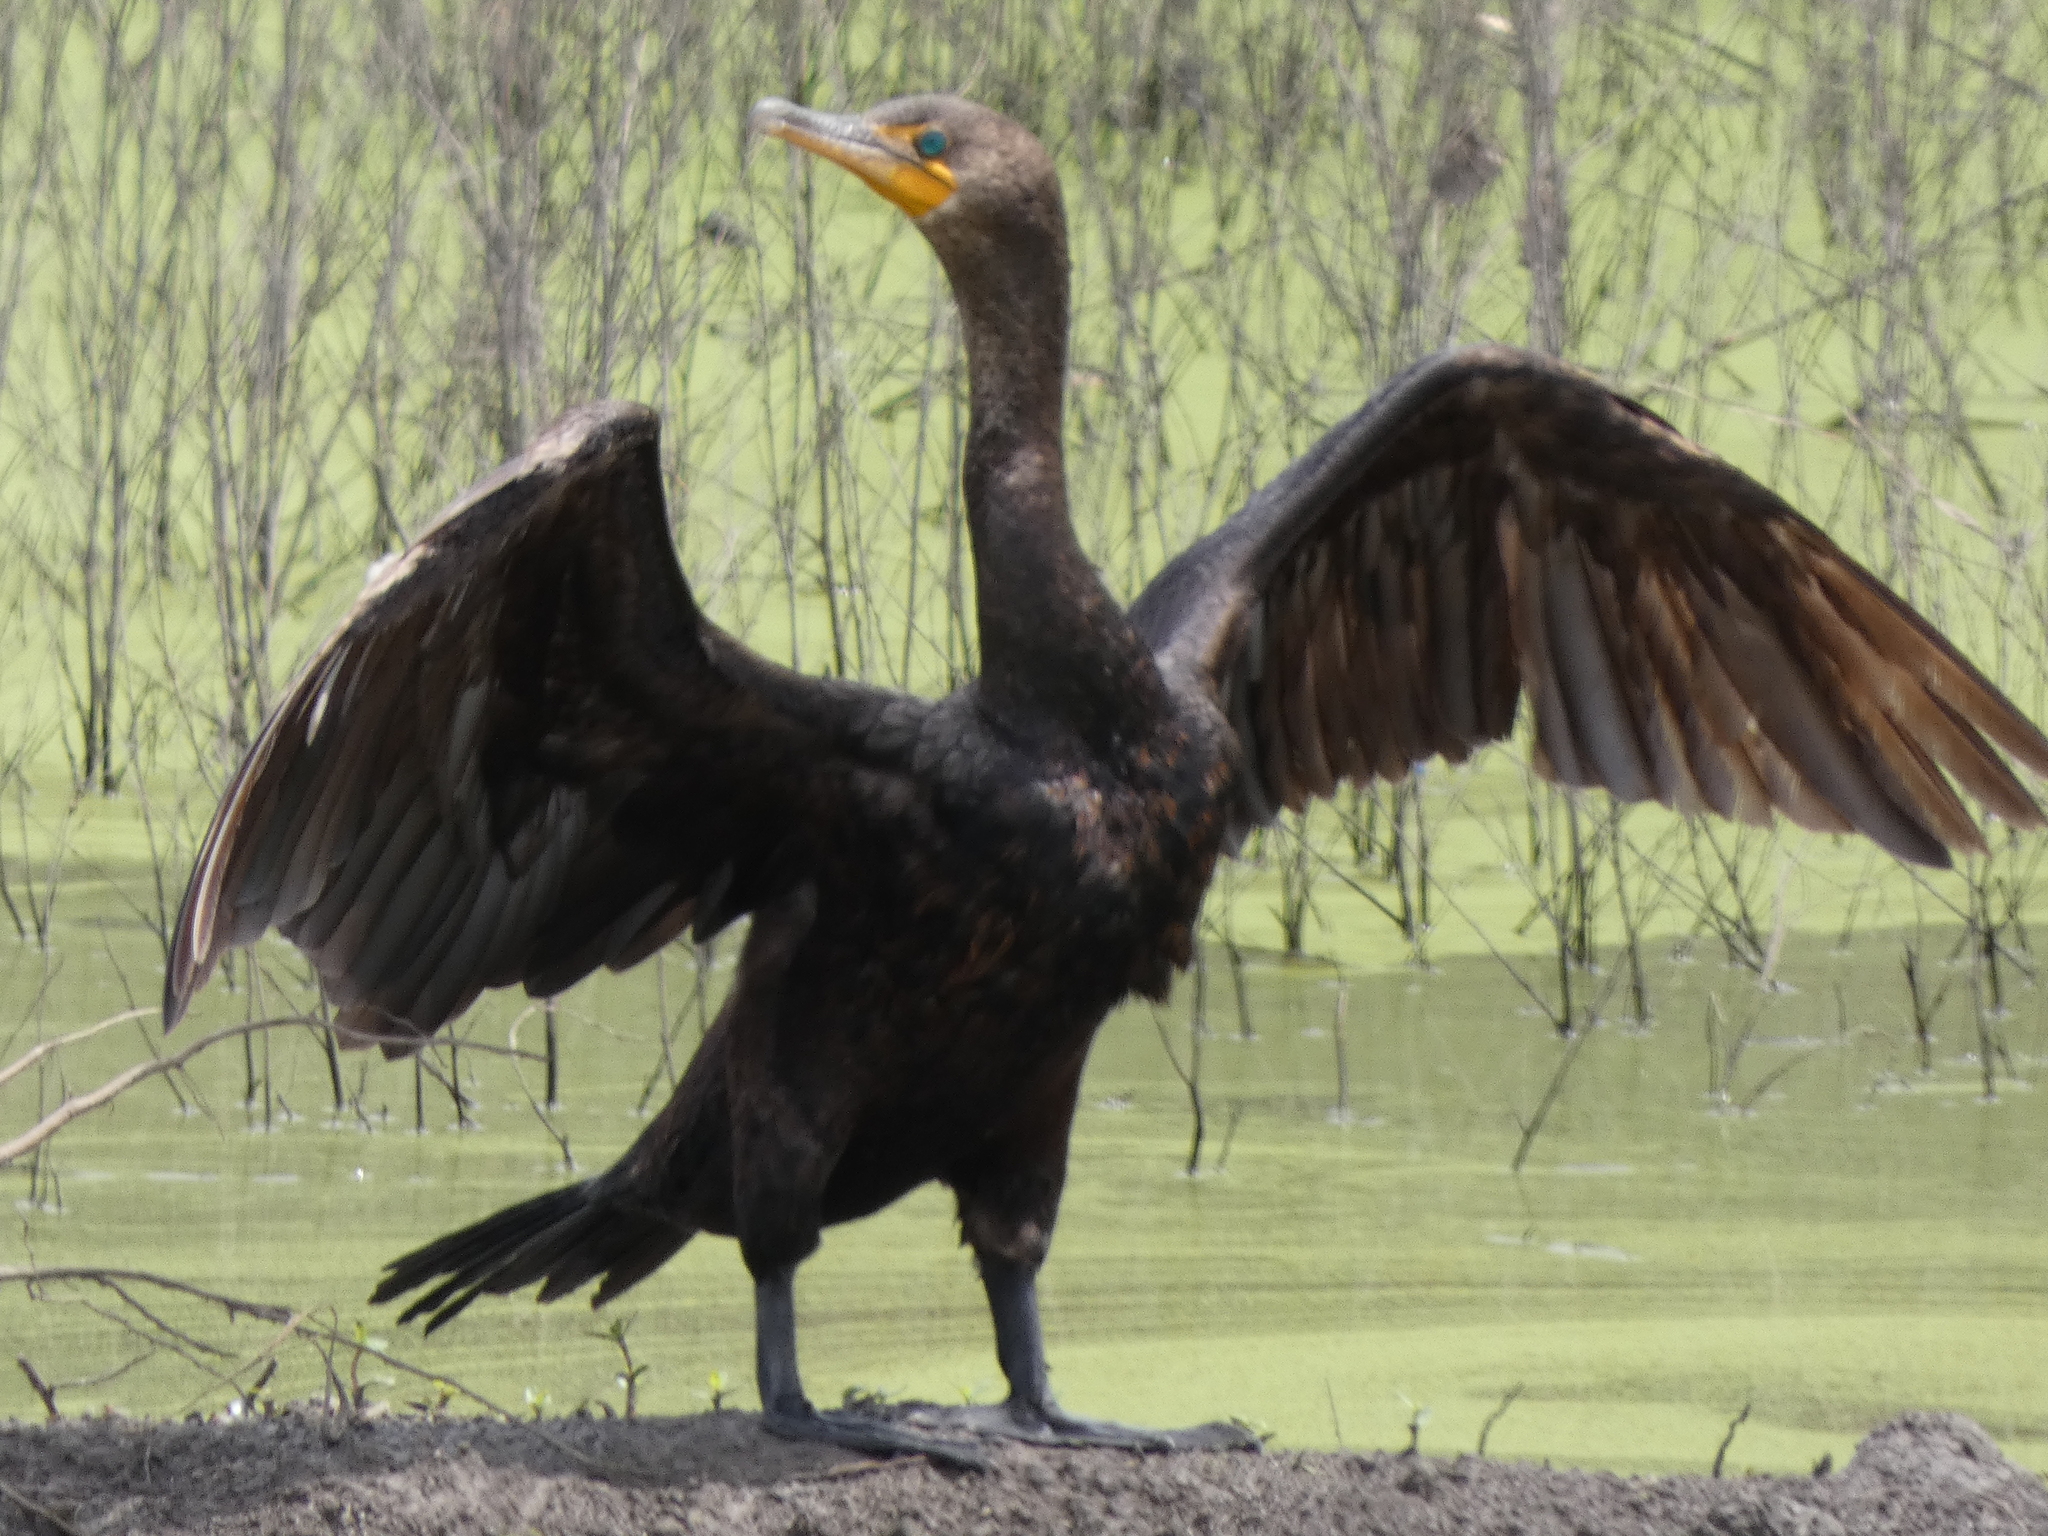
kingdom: Animalia
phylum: Chordata
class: Aves
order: Suliformes
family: Phalacrocoracidae
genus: Phalacrocorax
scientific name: Phalacrocorax auritus
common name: Double-crested cormorant
